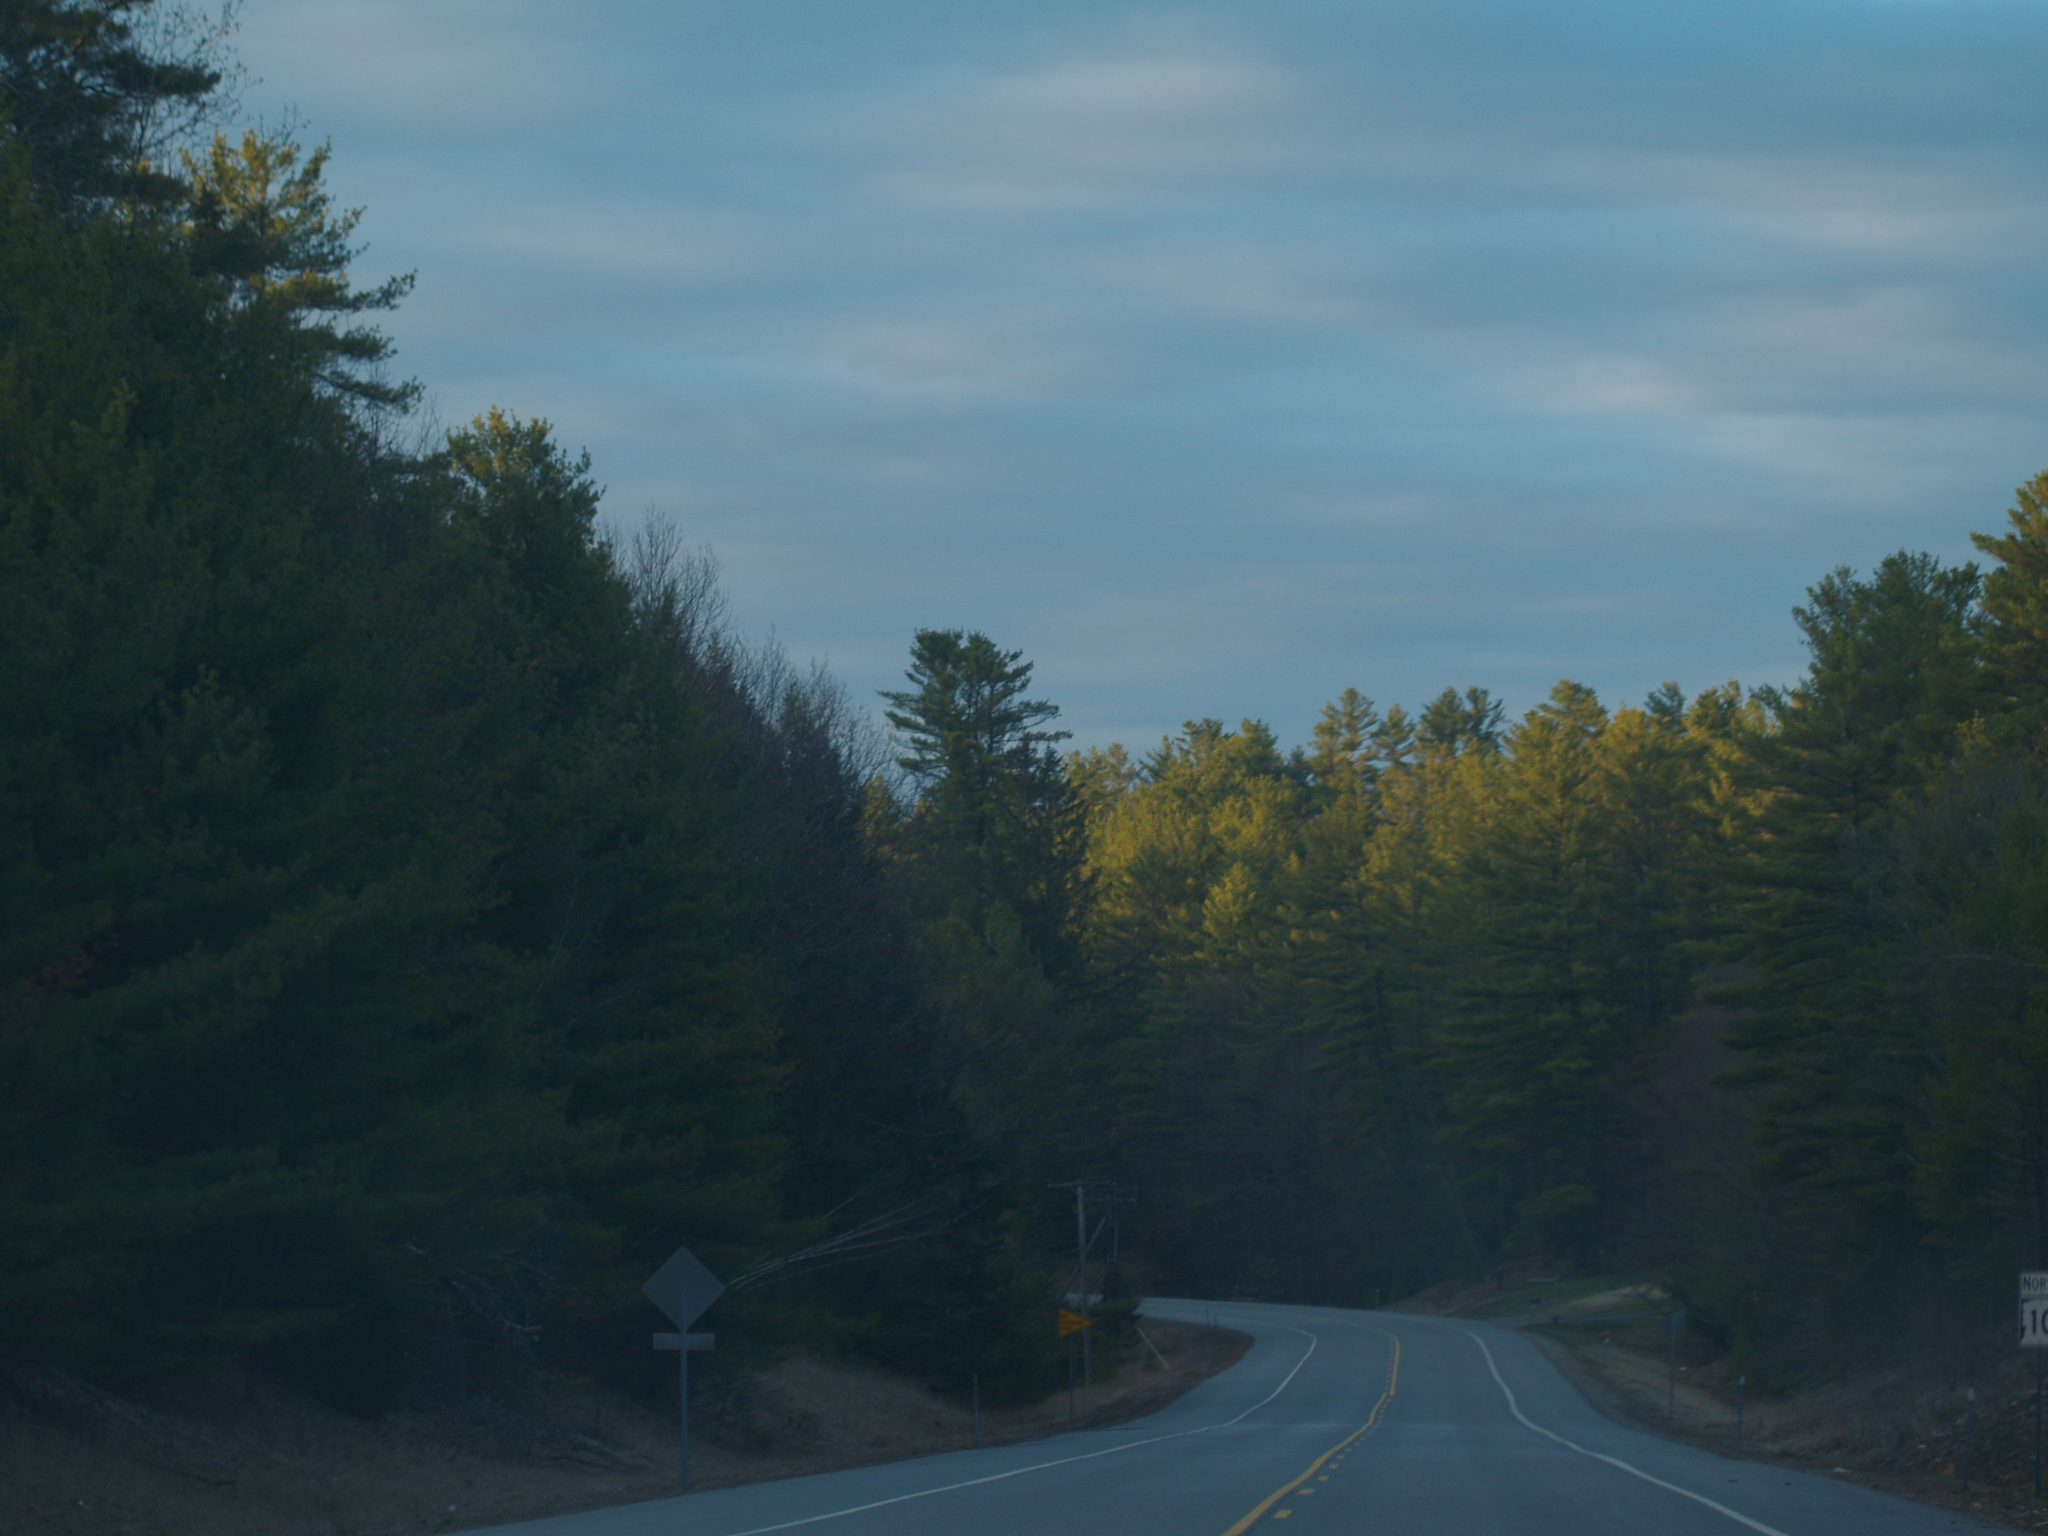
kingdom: Plantae
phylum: Tracheophyta
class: Pinopsida
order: Pinales
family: Pinaceae
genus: Pinus
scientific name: Pinus strobus
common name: Weymouth pine
